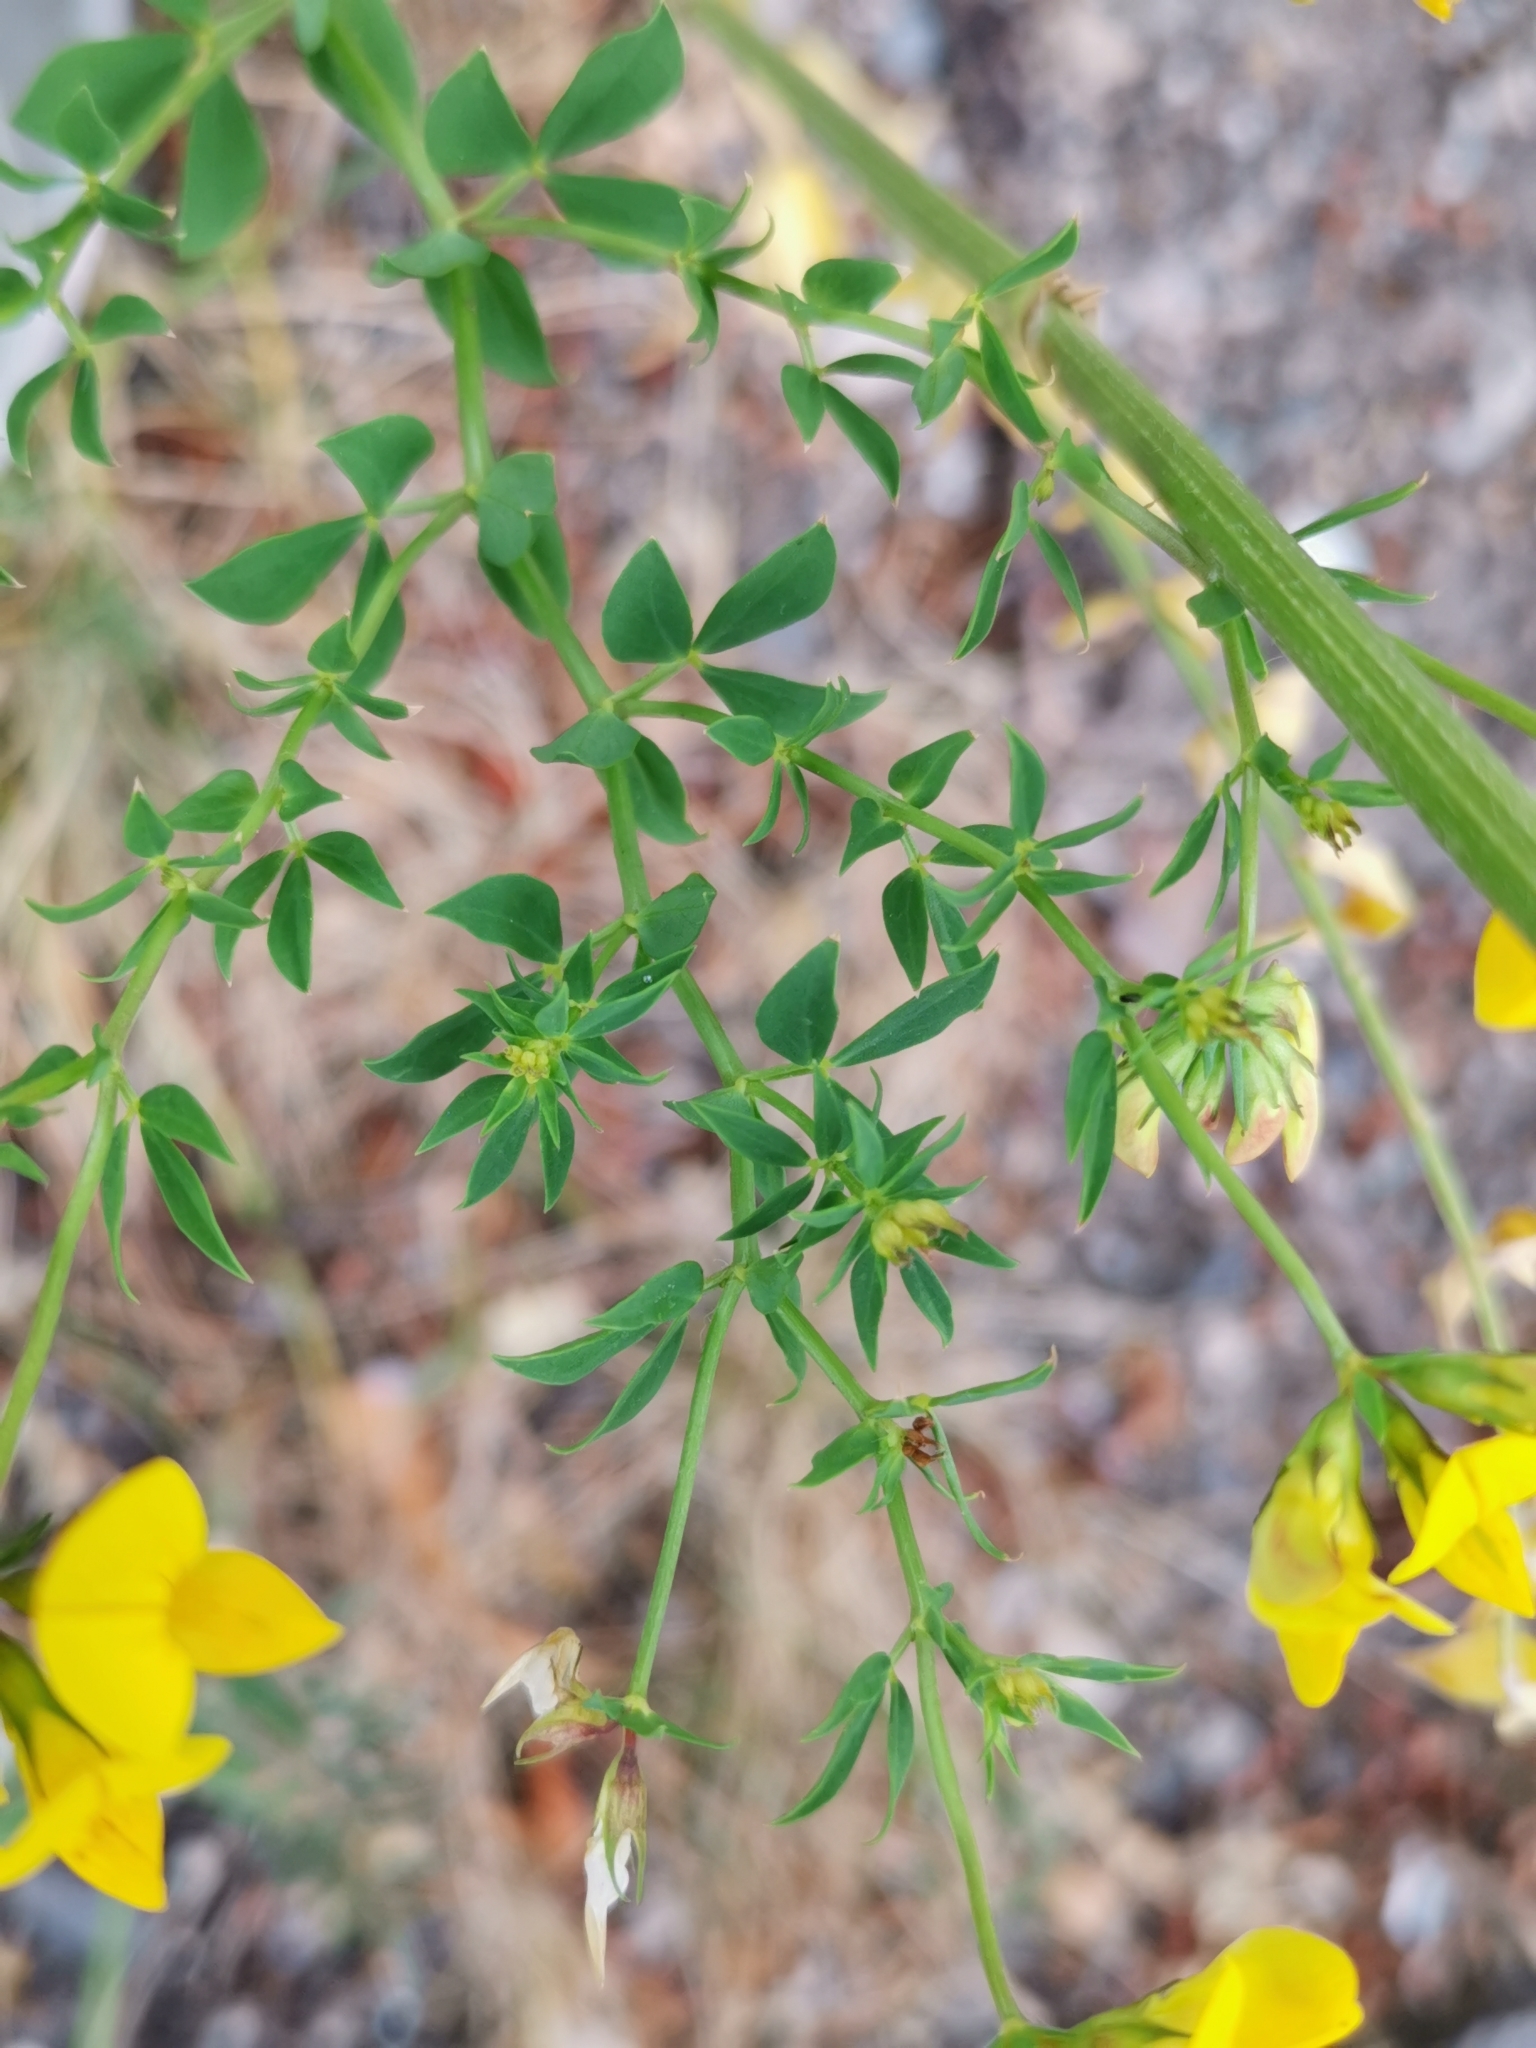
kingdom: Plantae
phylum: Tracheophyta
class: Magnoliopsida
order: Fabales
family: Fabaceae
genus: Lotus
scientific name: Lotus corniculatus
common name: Common bird's-foot-trefoil
